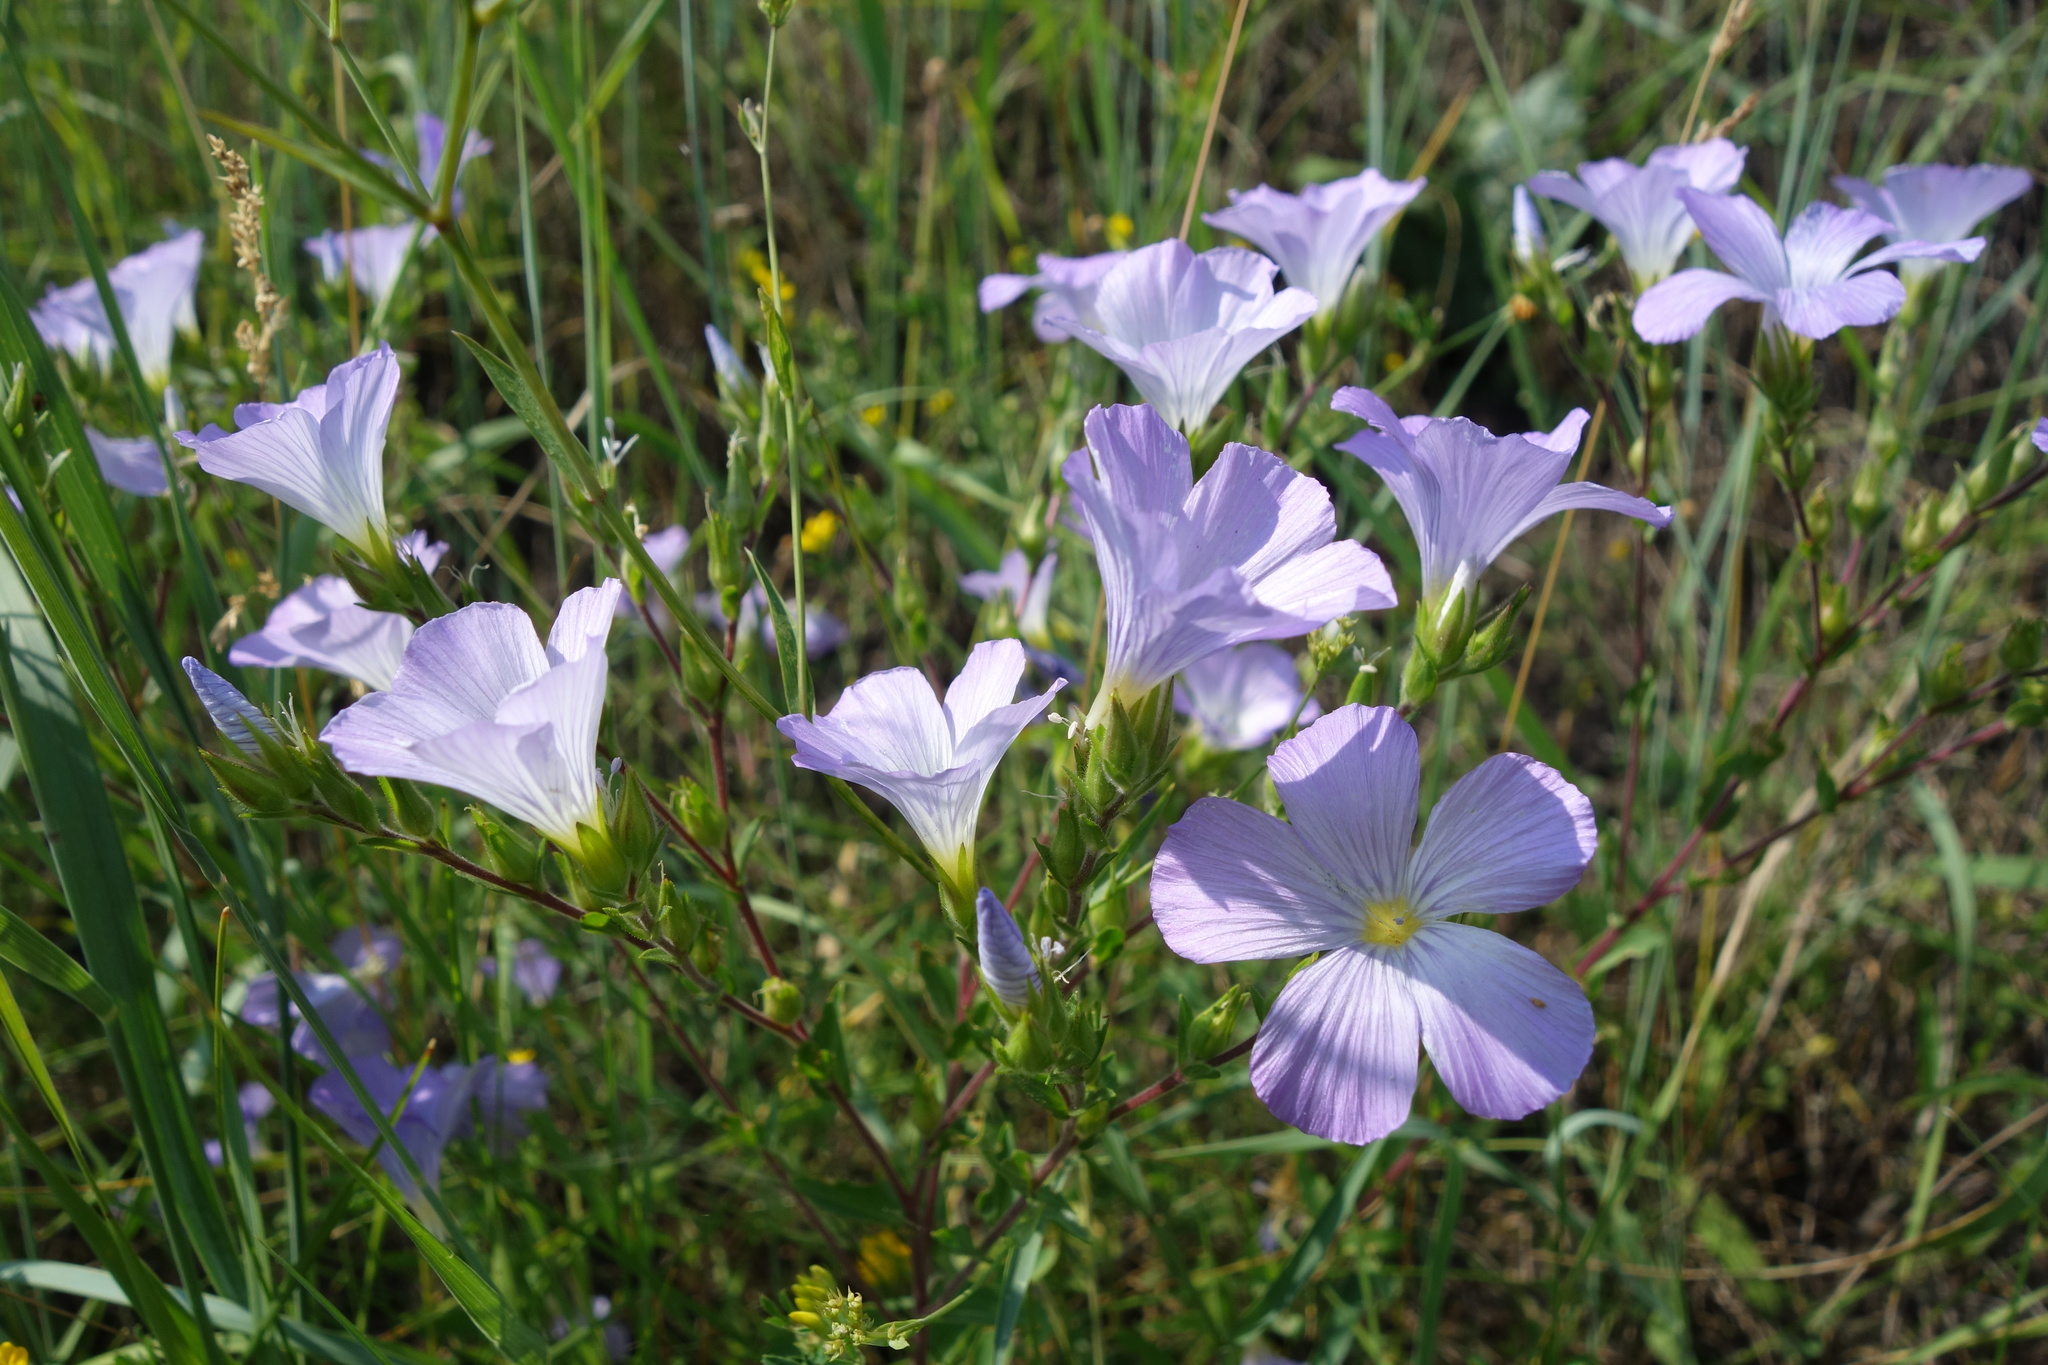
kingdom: Plantae
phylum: Tracheophyta
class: Magnoliopsida
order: Malpighiales
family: Linaceae
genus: Linum
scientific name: Linum hirsutum
